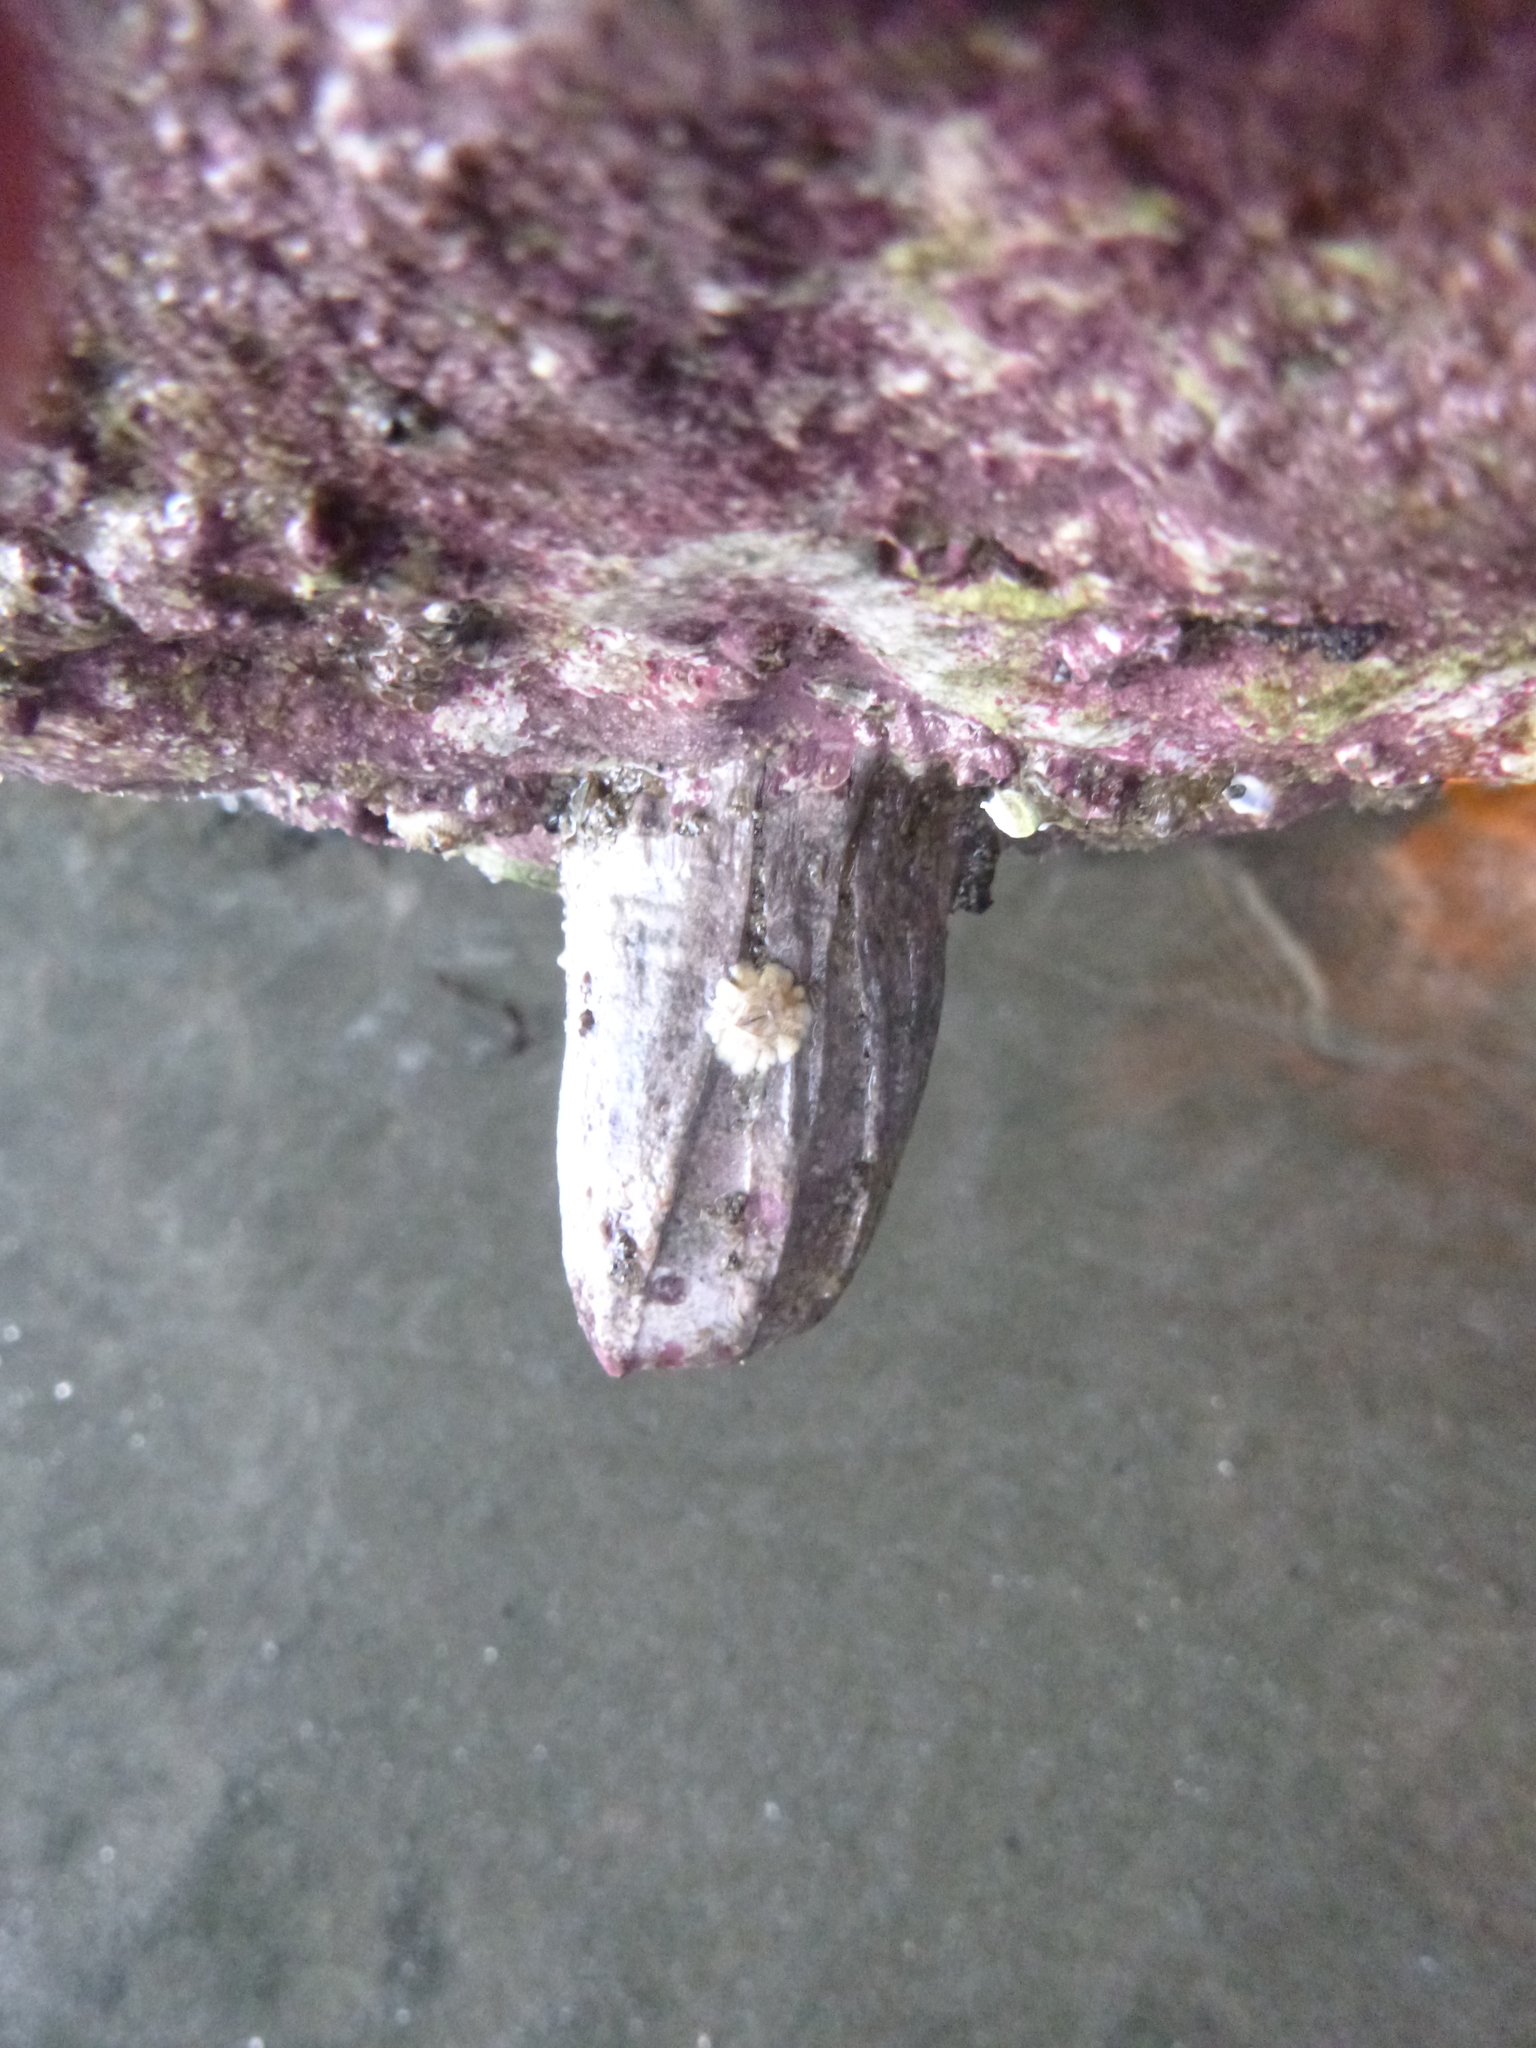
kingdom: Animalia
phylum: Arthropoda
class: Maxillopoda
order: Sessilia
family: Balanidae
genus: Austromegabalanus
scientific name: Austromegabalanus nigrescens
